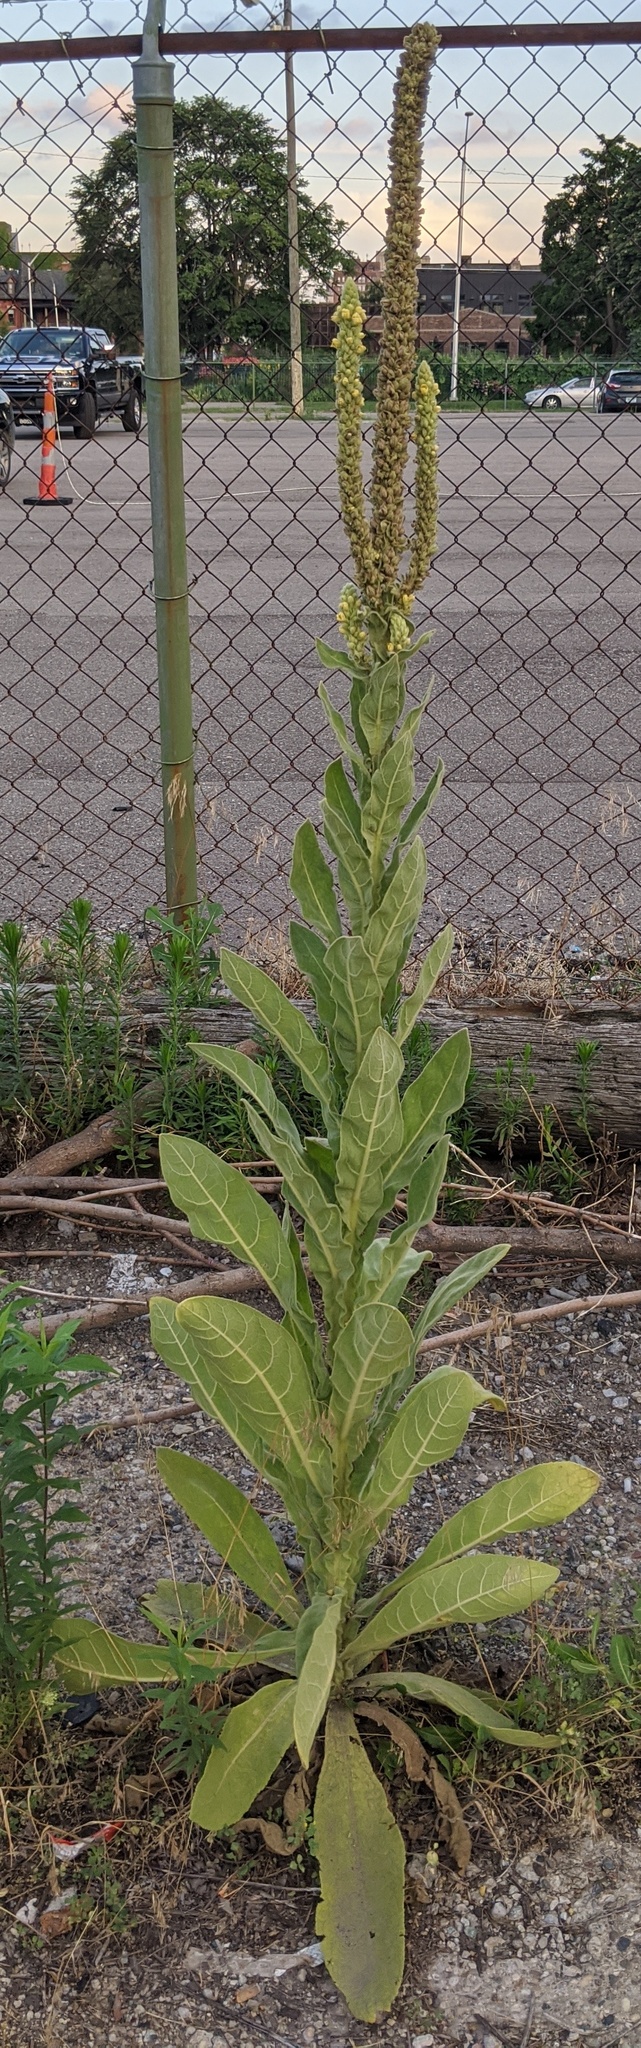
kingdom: Plantae
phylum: Tracheophyta
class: Magnoliopsida
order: Lamiales
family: Scrophulariaceae
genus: Verbascum
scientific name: Verbascum thapsus
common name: Common mullein
